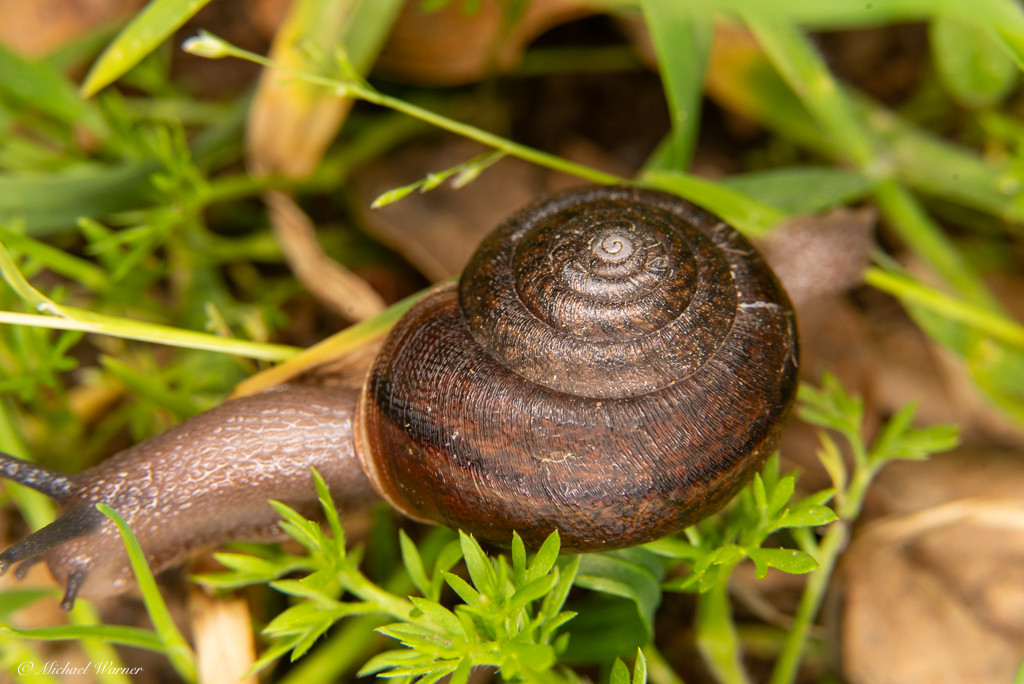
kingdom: Animalia
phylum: Mollusca
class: Gastropoda
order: Stylommatophora
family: Xanthonychidae
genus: Helminthoglypta
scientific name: Helminthoglypta diabloensis
